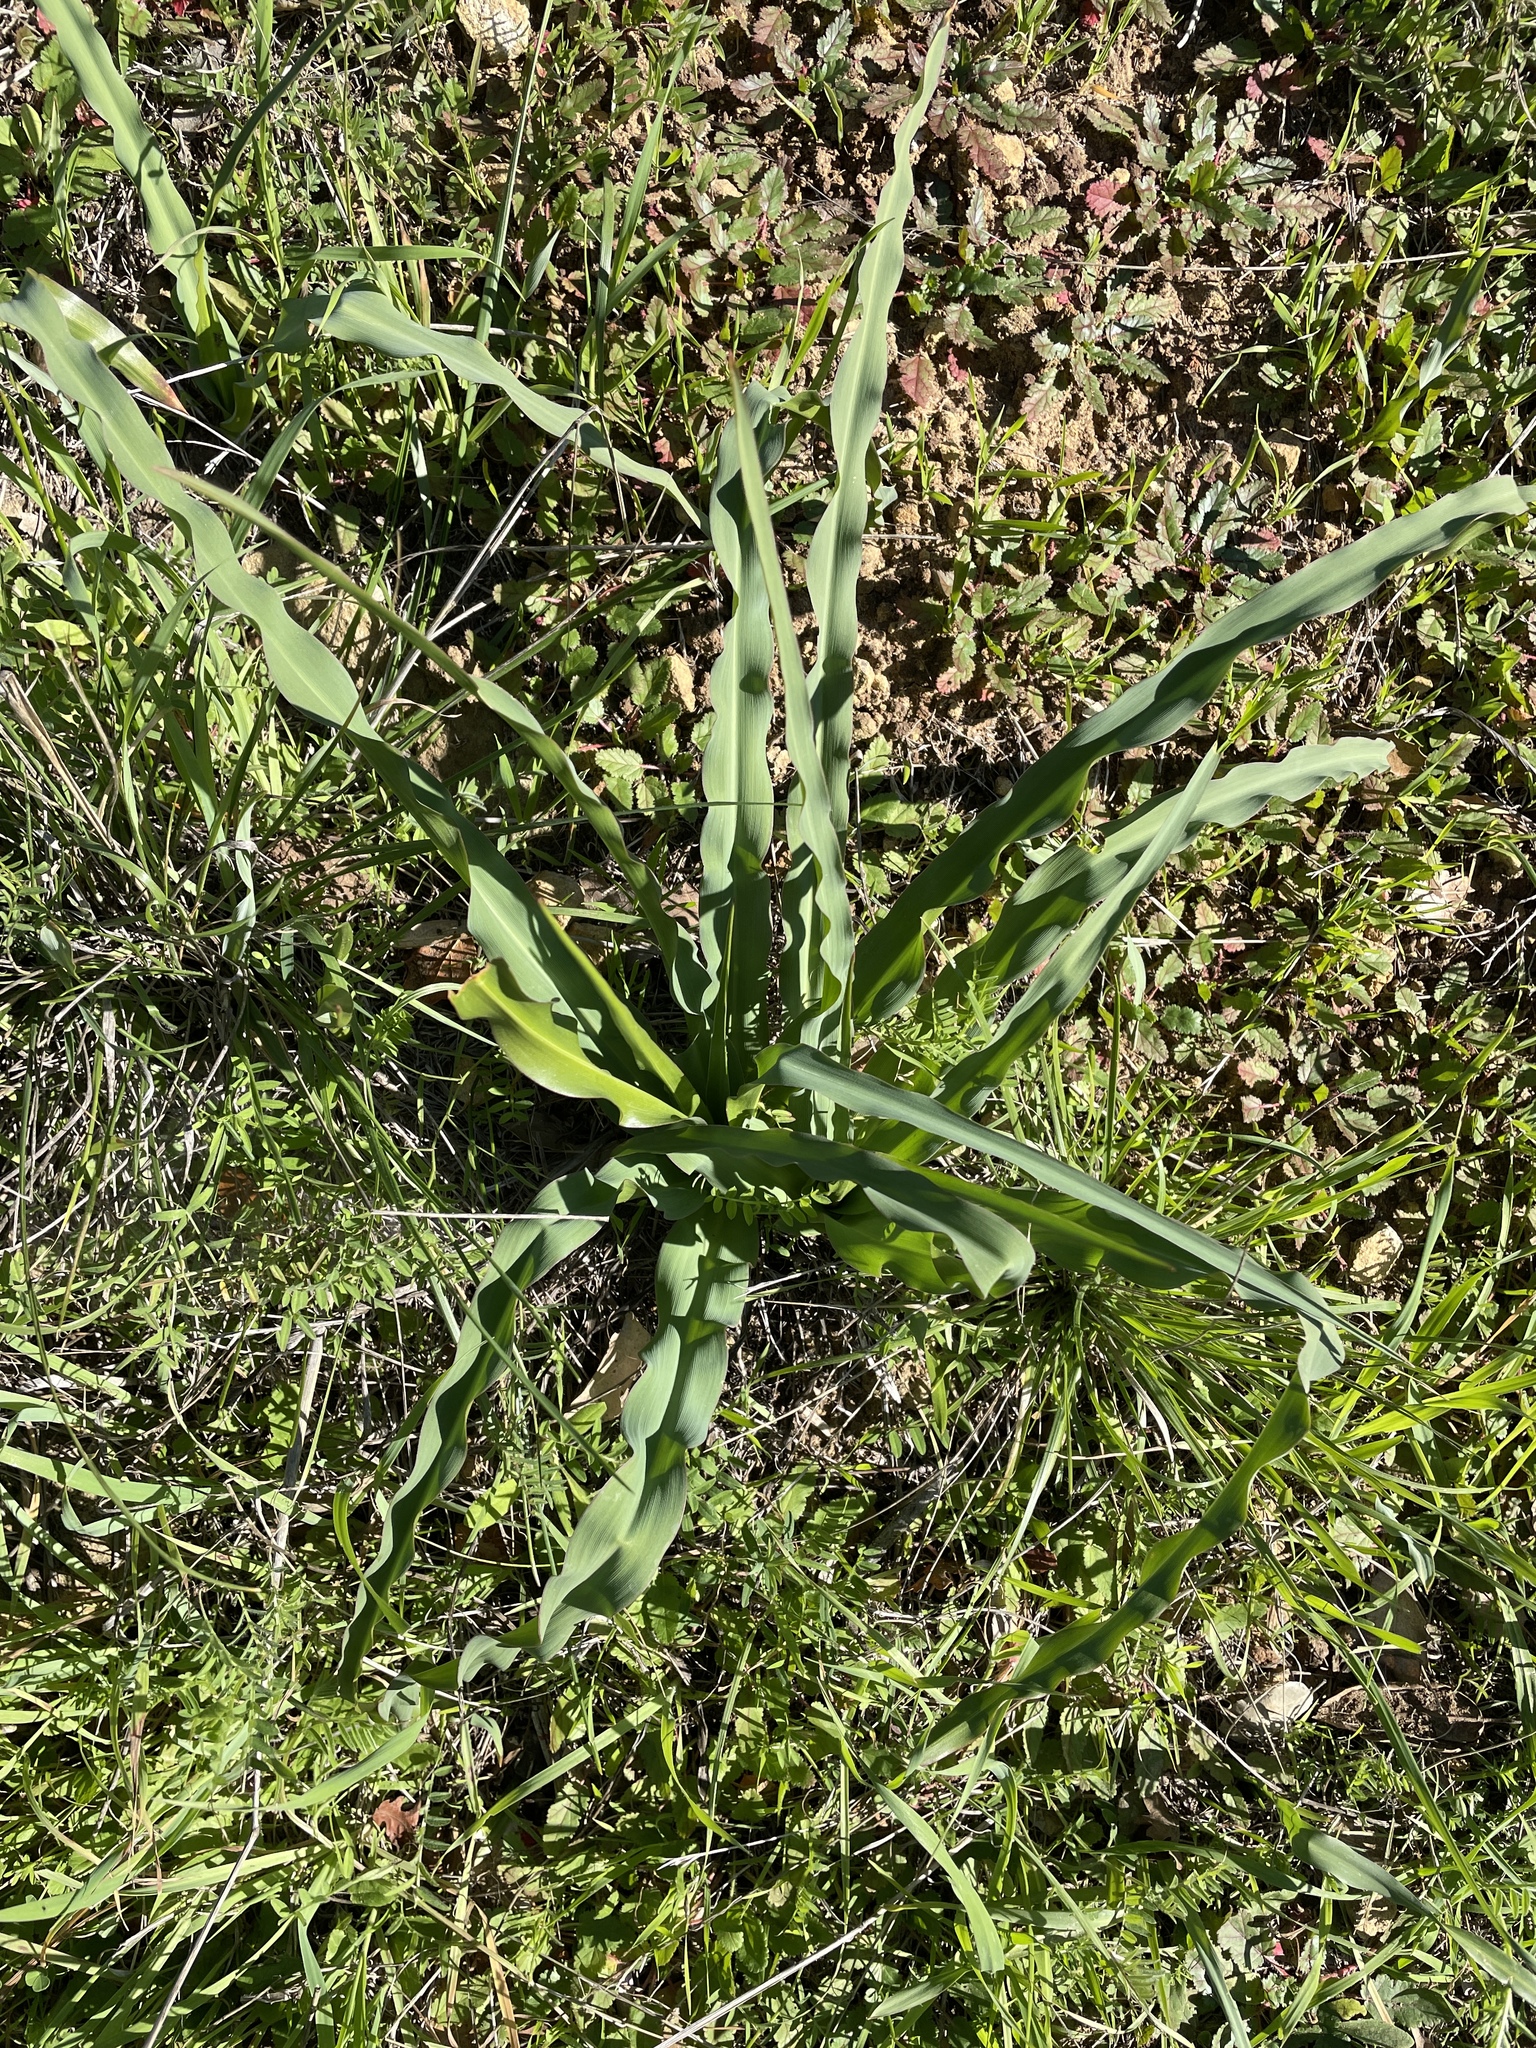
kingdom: Plantae
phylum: Tracheophyta
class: Liliopsida
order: Asparagales
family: Asparagaceae
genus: Chlorogalum
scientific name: Chlorogalum pomeridianum
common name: Amole
